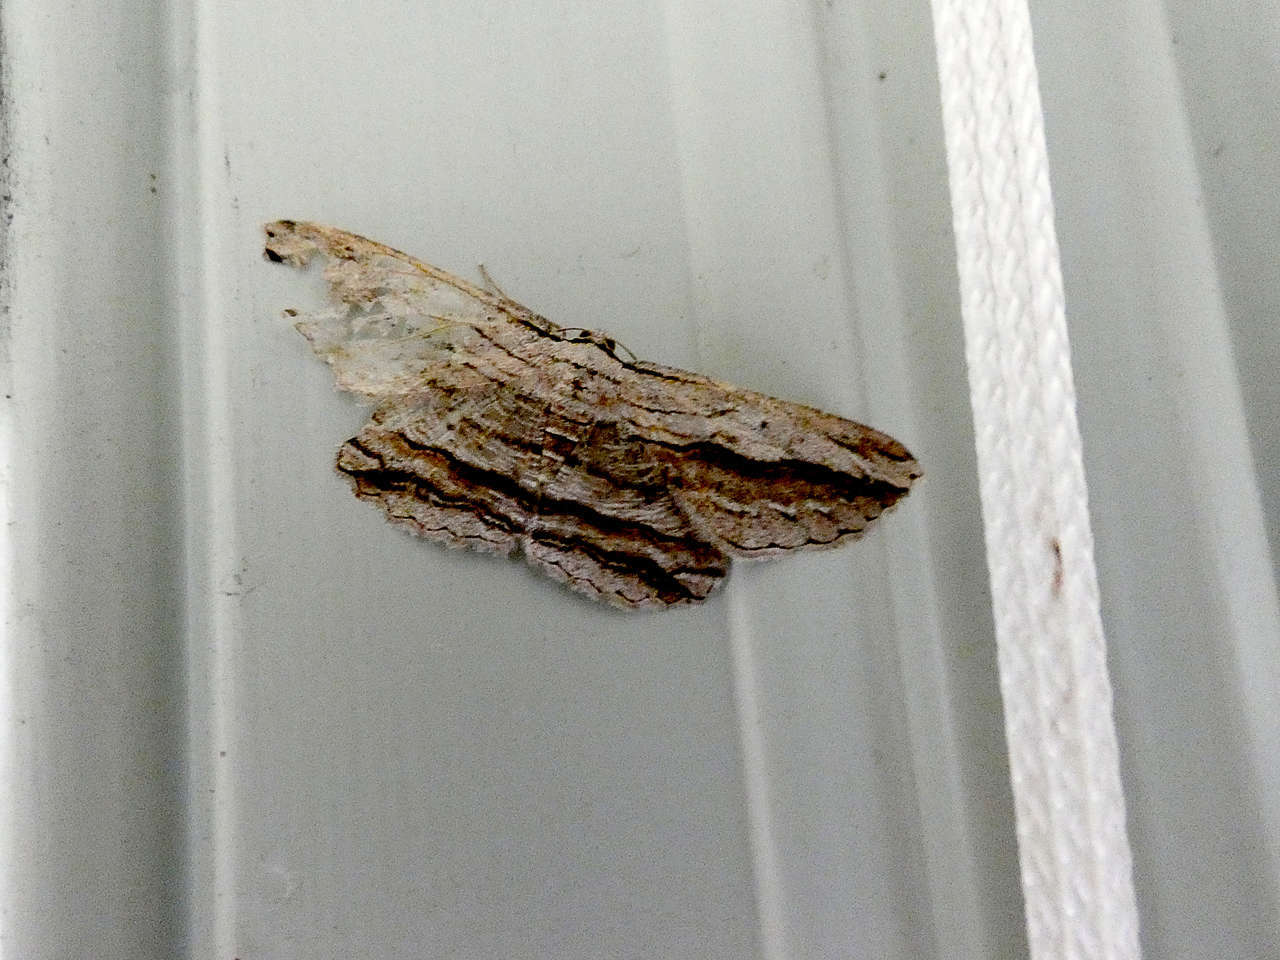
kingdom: Animalia
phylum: Arthropoda
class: Insecta
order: Lepidoptera
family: Geometridae
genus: Euphronarcha
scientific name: Euphronarcha luxaria
